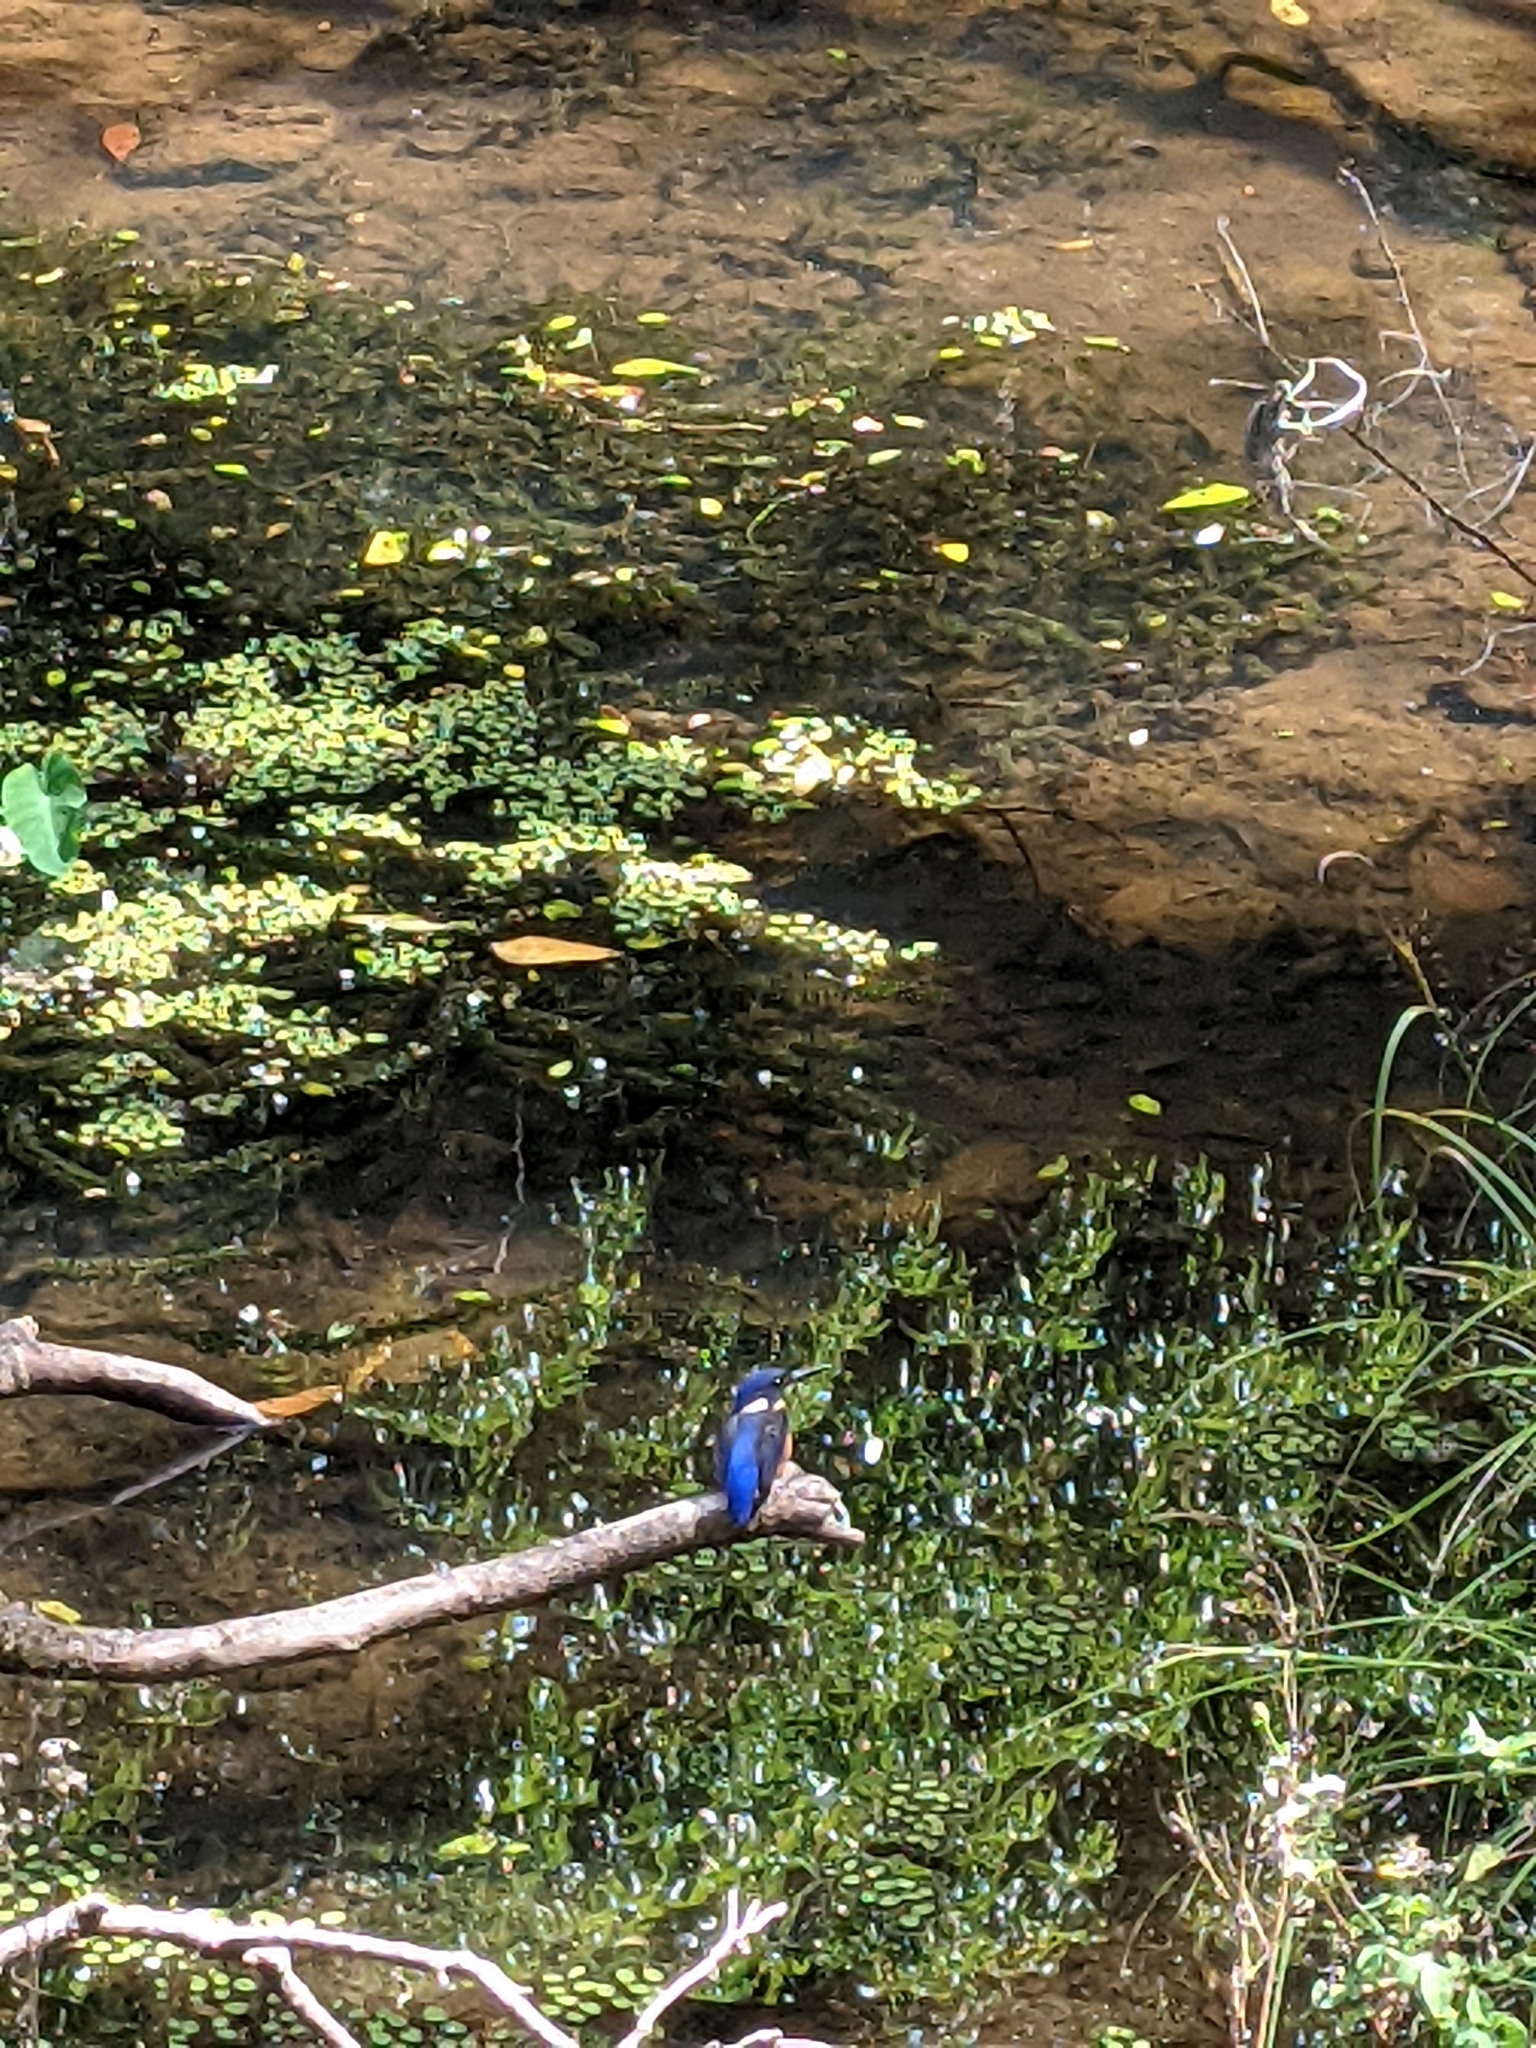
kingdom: Animalia
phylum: Chordata
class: Aves
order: Coraciiformes
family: Alcedinidae
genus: Ceyx
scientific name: Ceyx azureus
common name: Azure kingfisher
